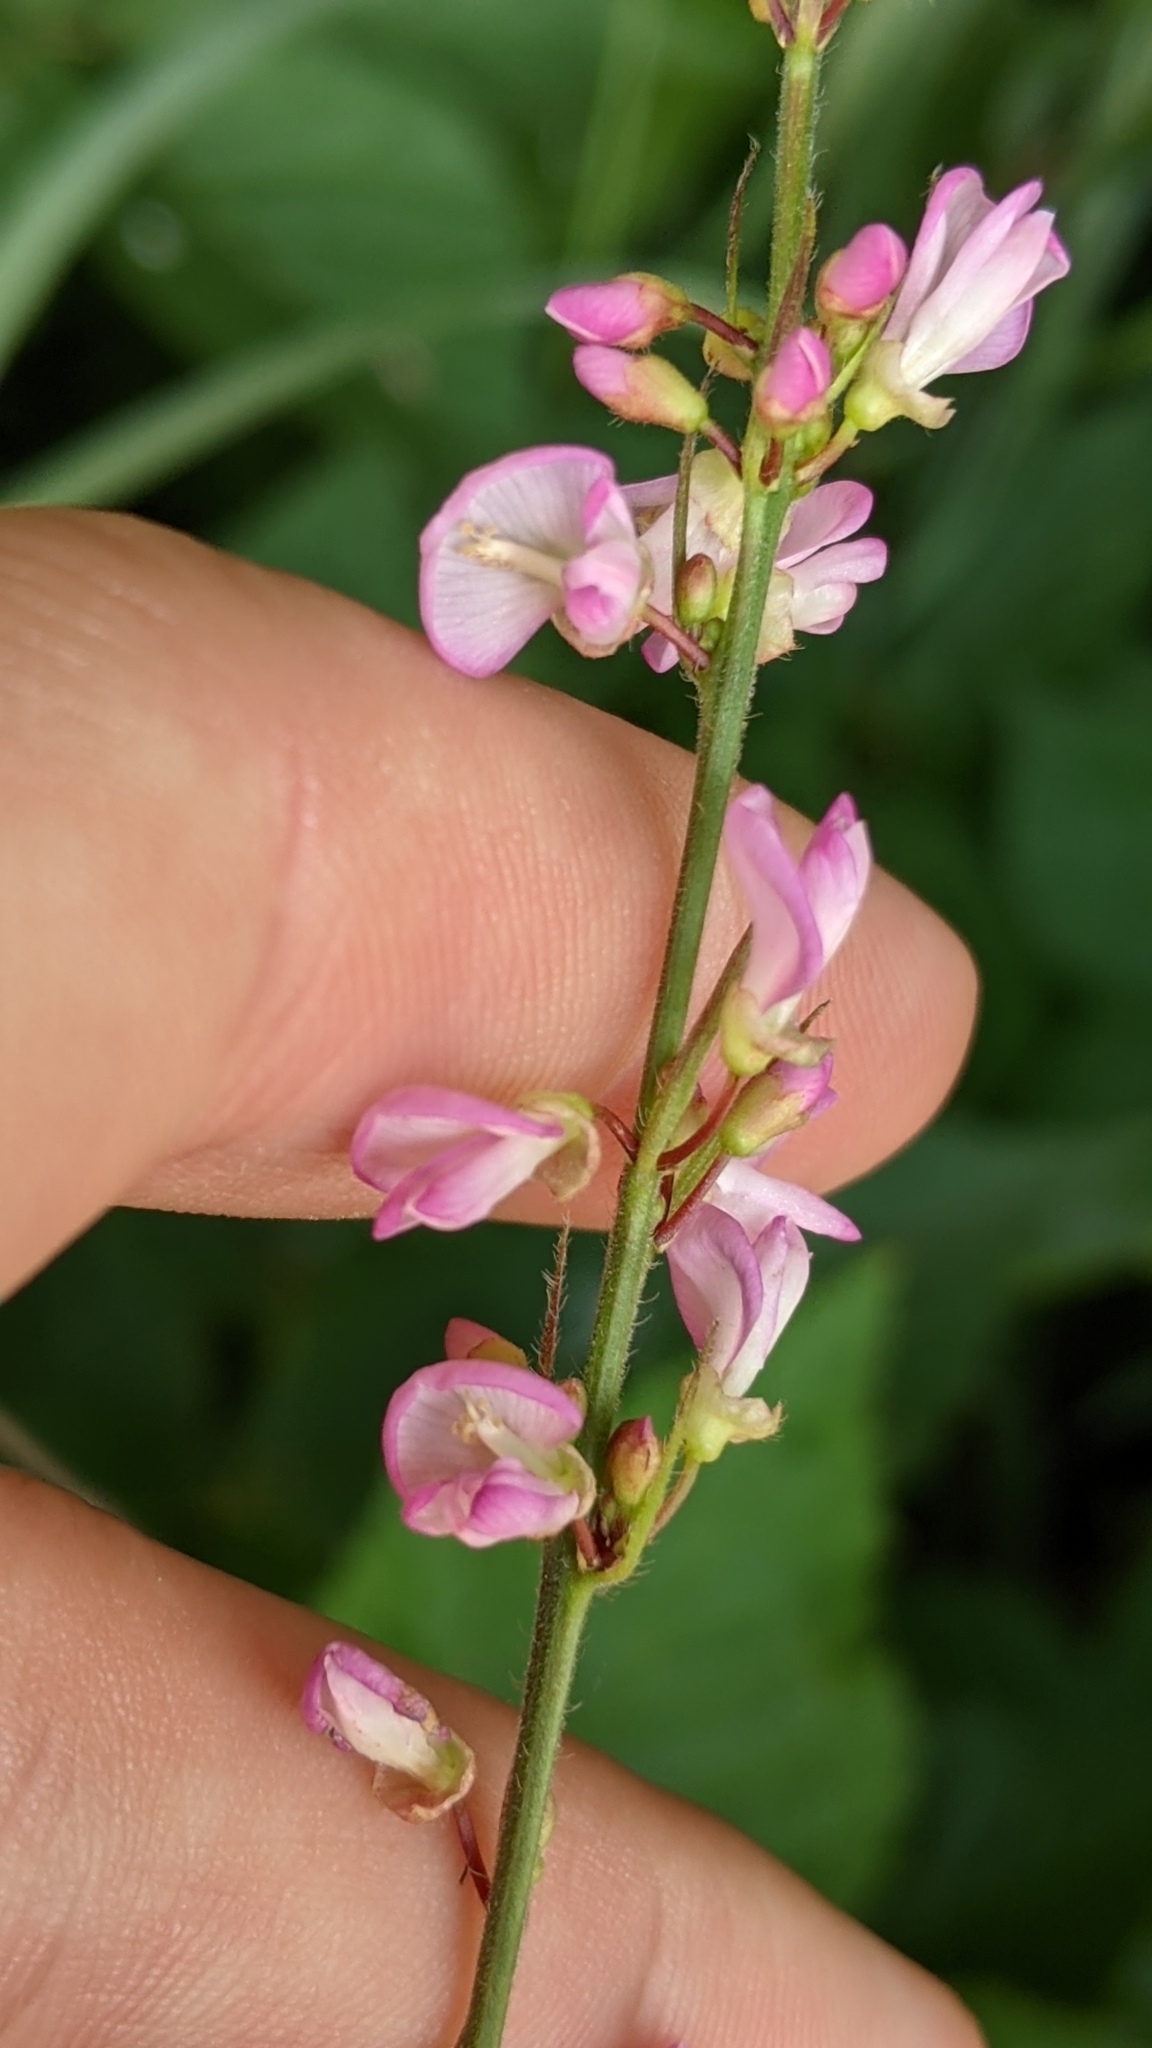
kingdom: Plantae
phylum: Tracheophyta
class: Magnoliopsida
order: Fabales
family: Fabaceae
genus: Hylodesmum
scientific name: Hylodesmum glutinosum
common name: Clustered-leaved tick-trefoil
